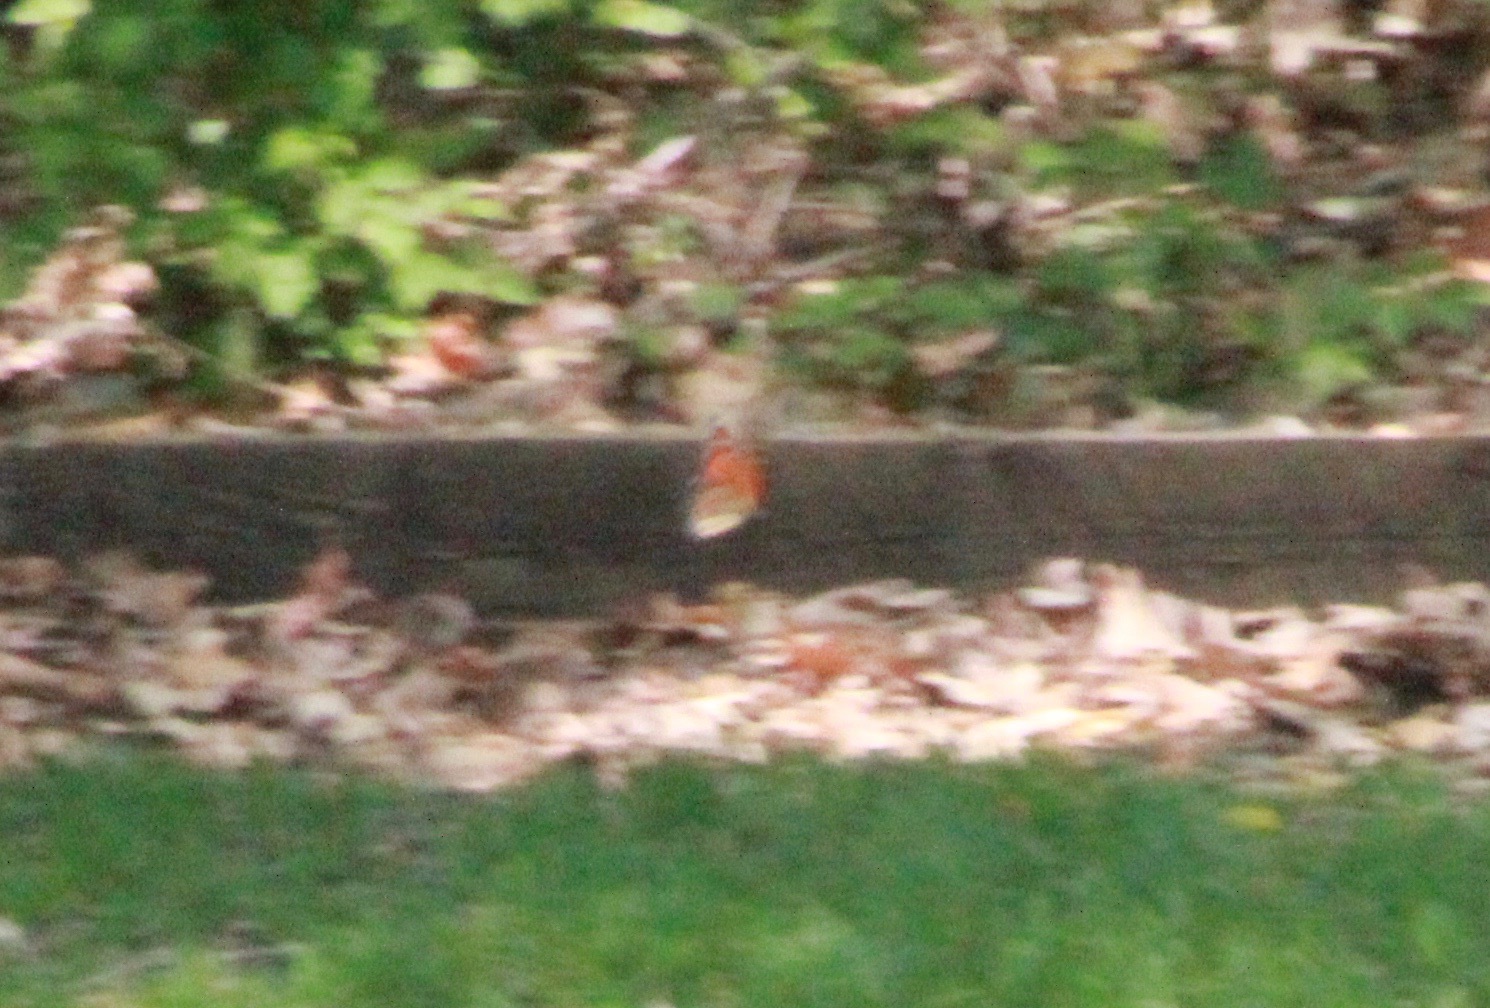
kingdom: Animalia
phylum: Arthropoda
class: Insecta
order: Lepidoptera
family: Nymphalidae
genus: Danaus
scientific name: Danaus plexippus
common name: Monarch
